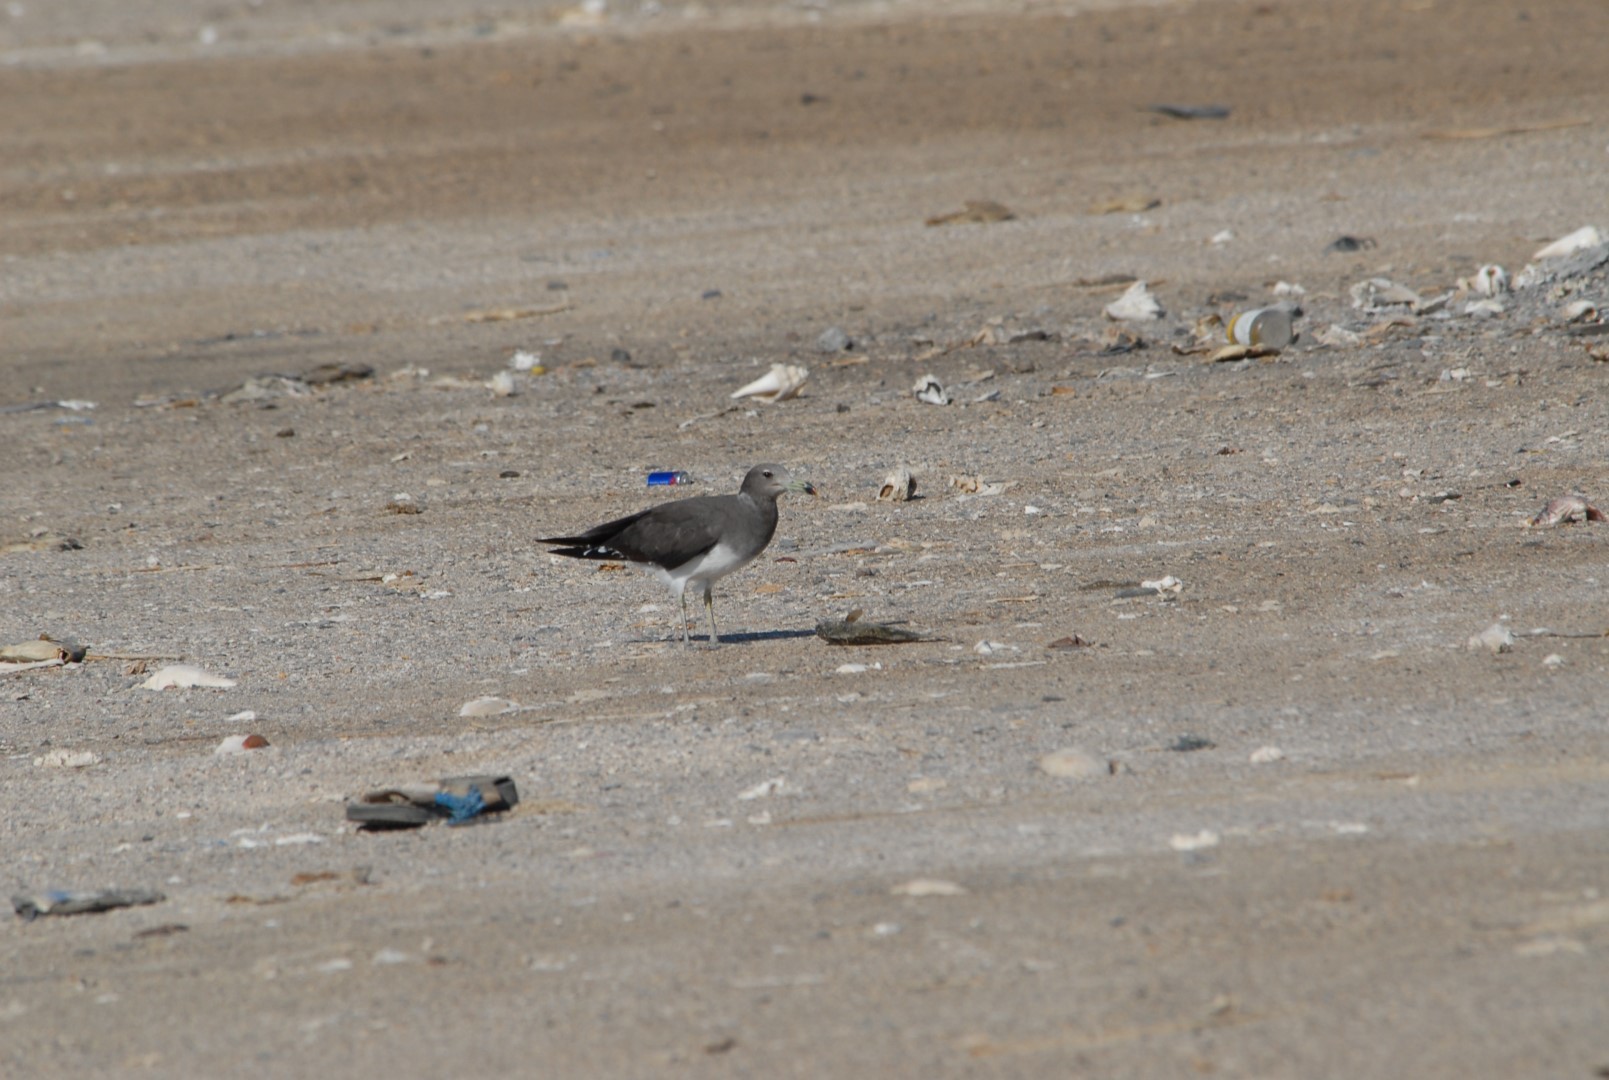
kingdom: Animalia
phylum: Chordata
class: Aves
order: Charadriiformes
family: Laridae
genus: Ichthyaetus
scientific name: Ichthyaetus hemprichii
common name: Sooty gull
